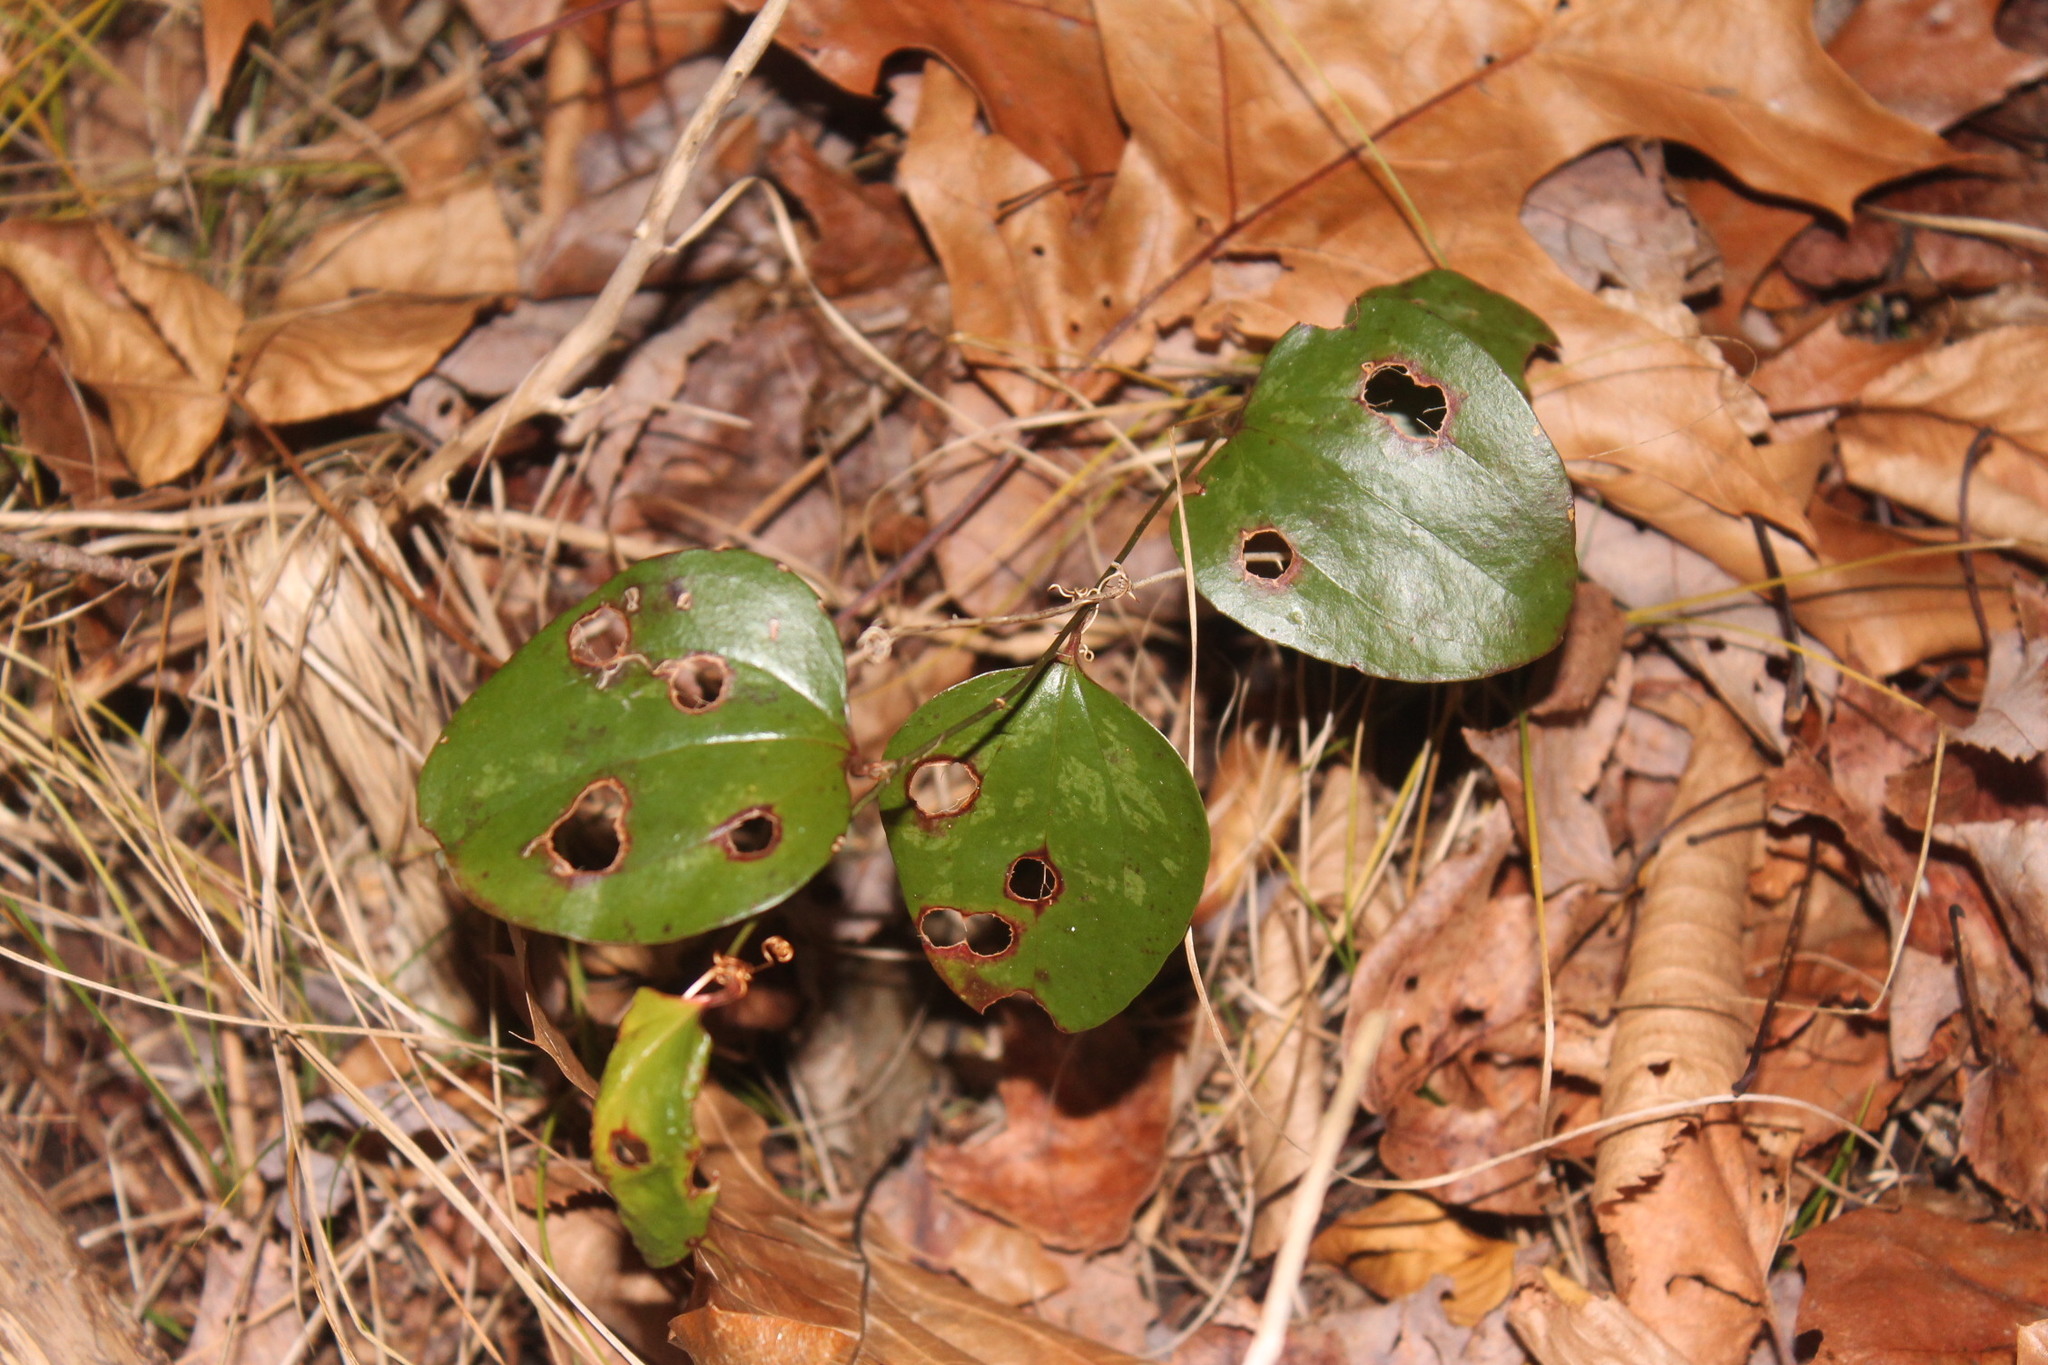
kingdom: Plantae
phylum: Tracheophyta
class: Liliopsida
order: Liliales
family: Smilacaceae
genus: Smilax
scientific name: Smilax rotundifolia
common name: Bullbriar
